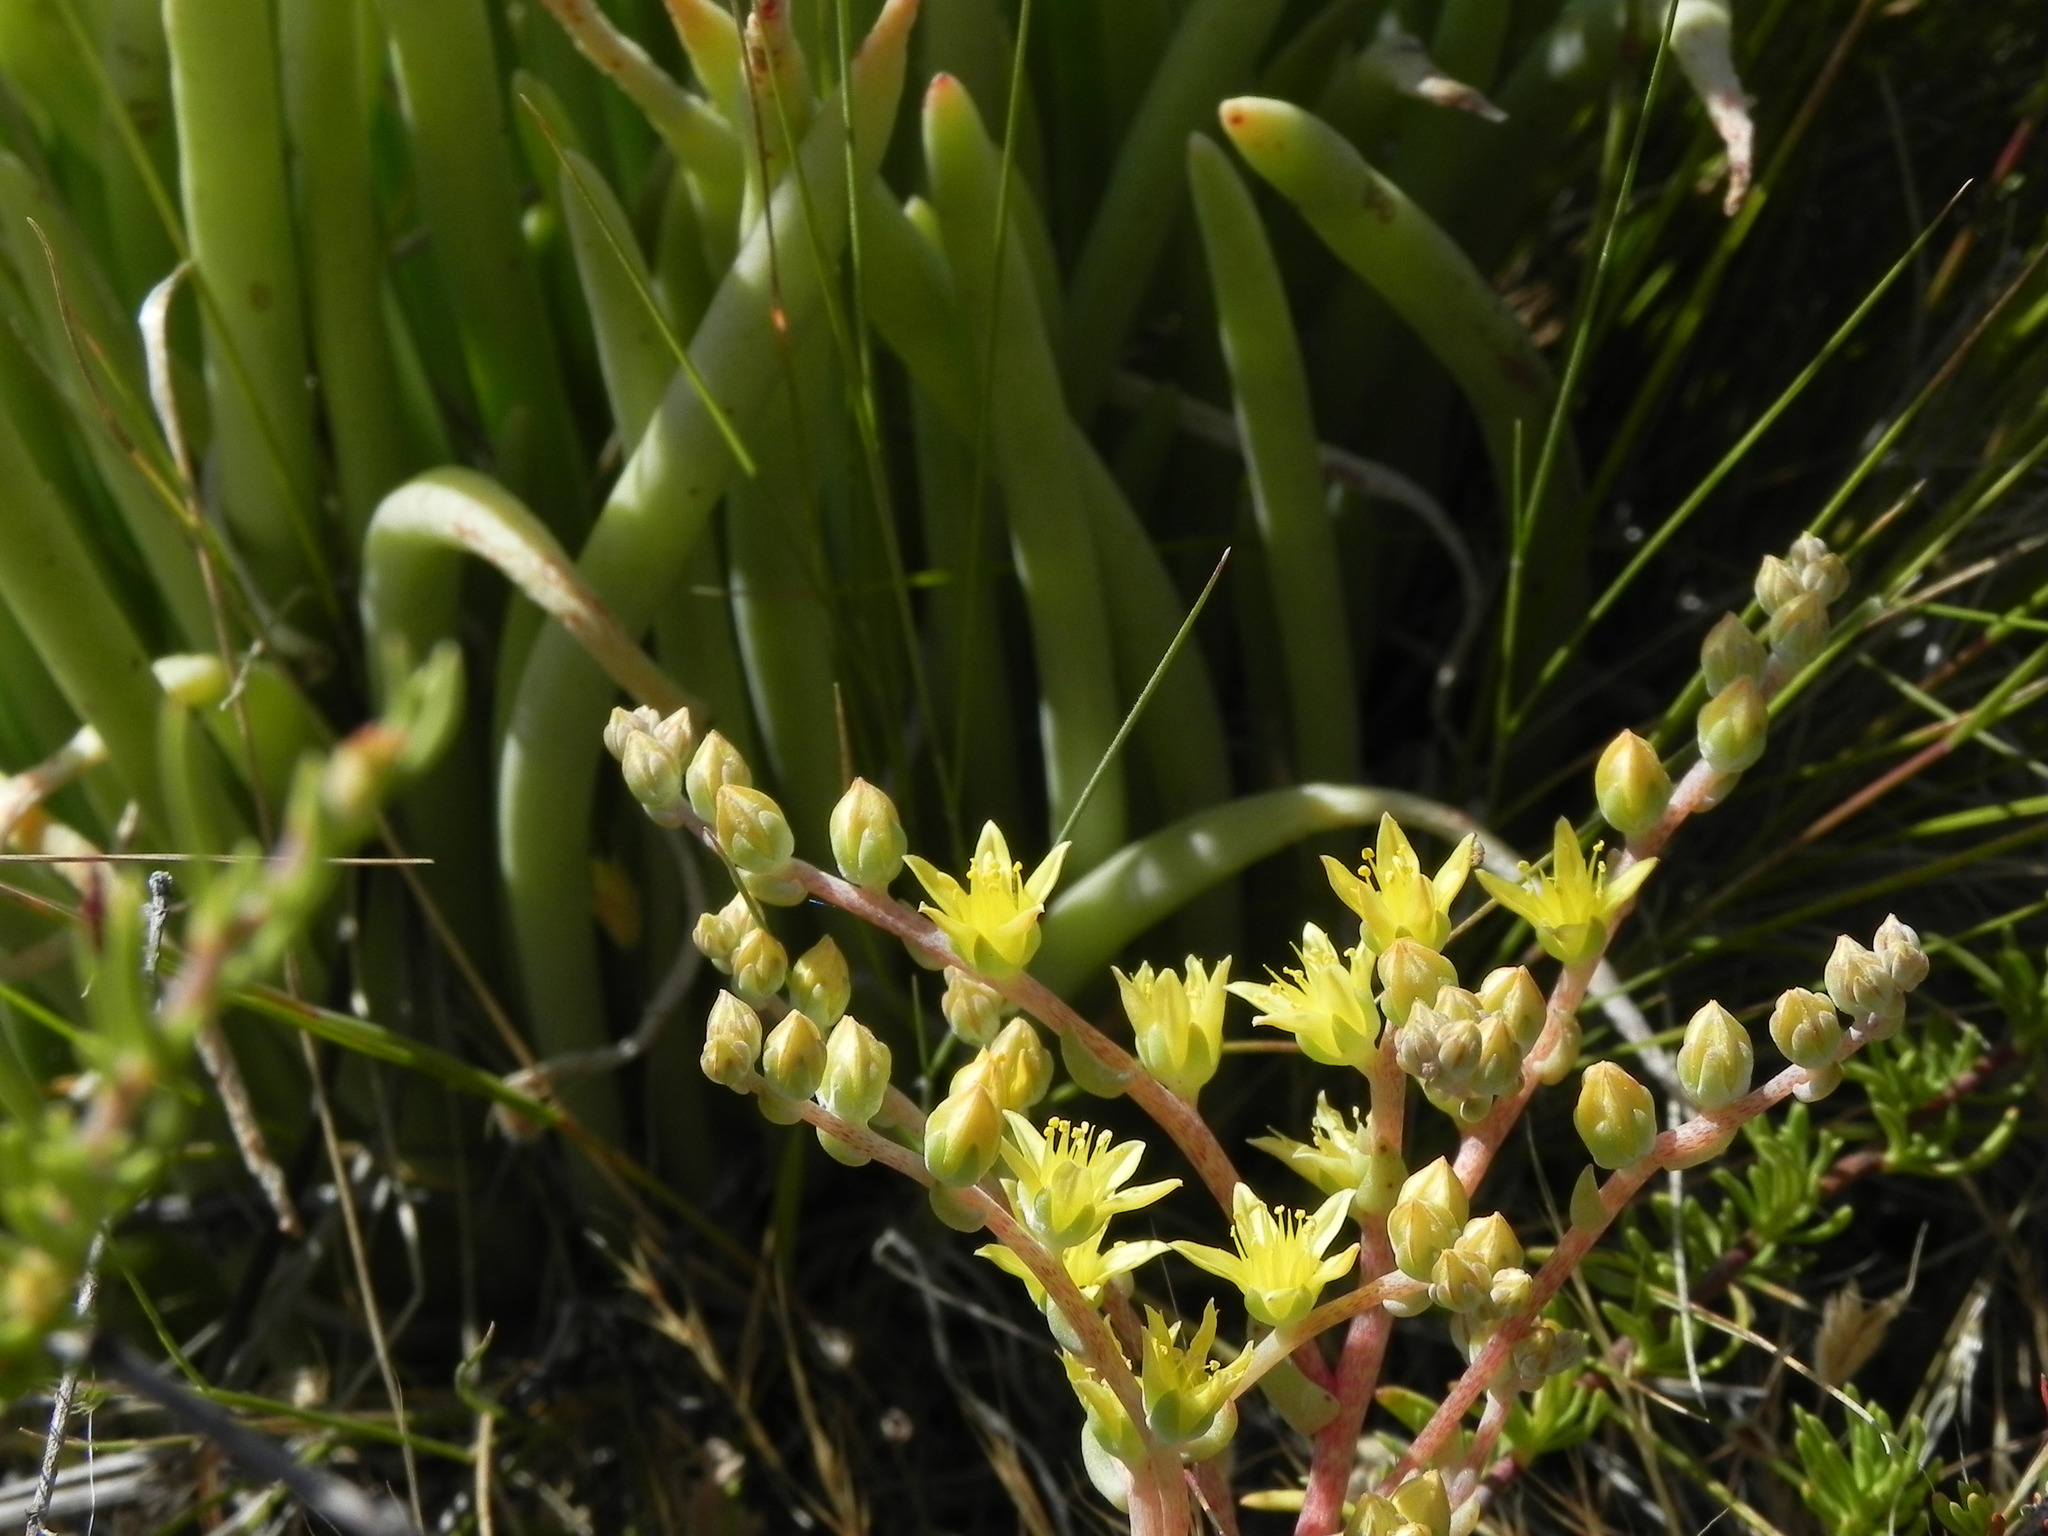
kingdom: Plantae
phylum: Tracheophyta
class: Magnoliopsida
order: Saxifragales
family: Crassulaceae
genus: Dudleya
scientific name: Dudleya variegata
